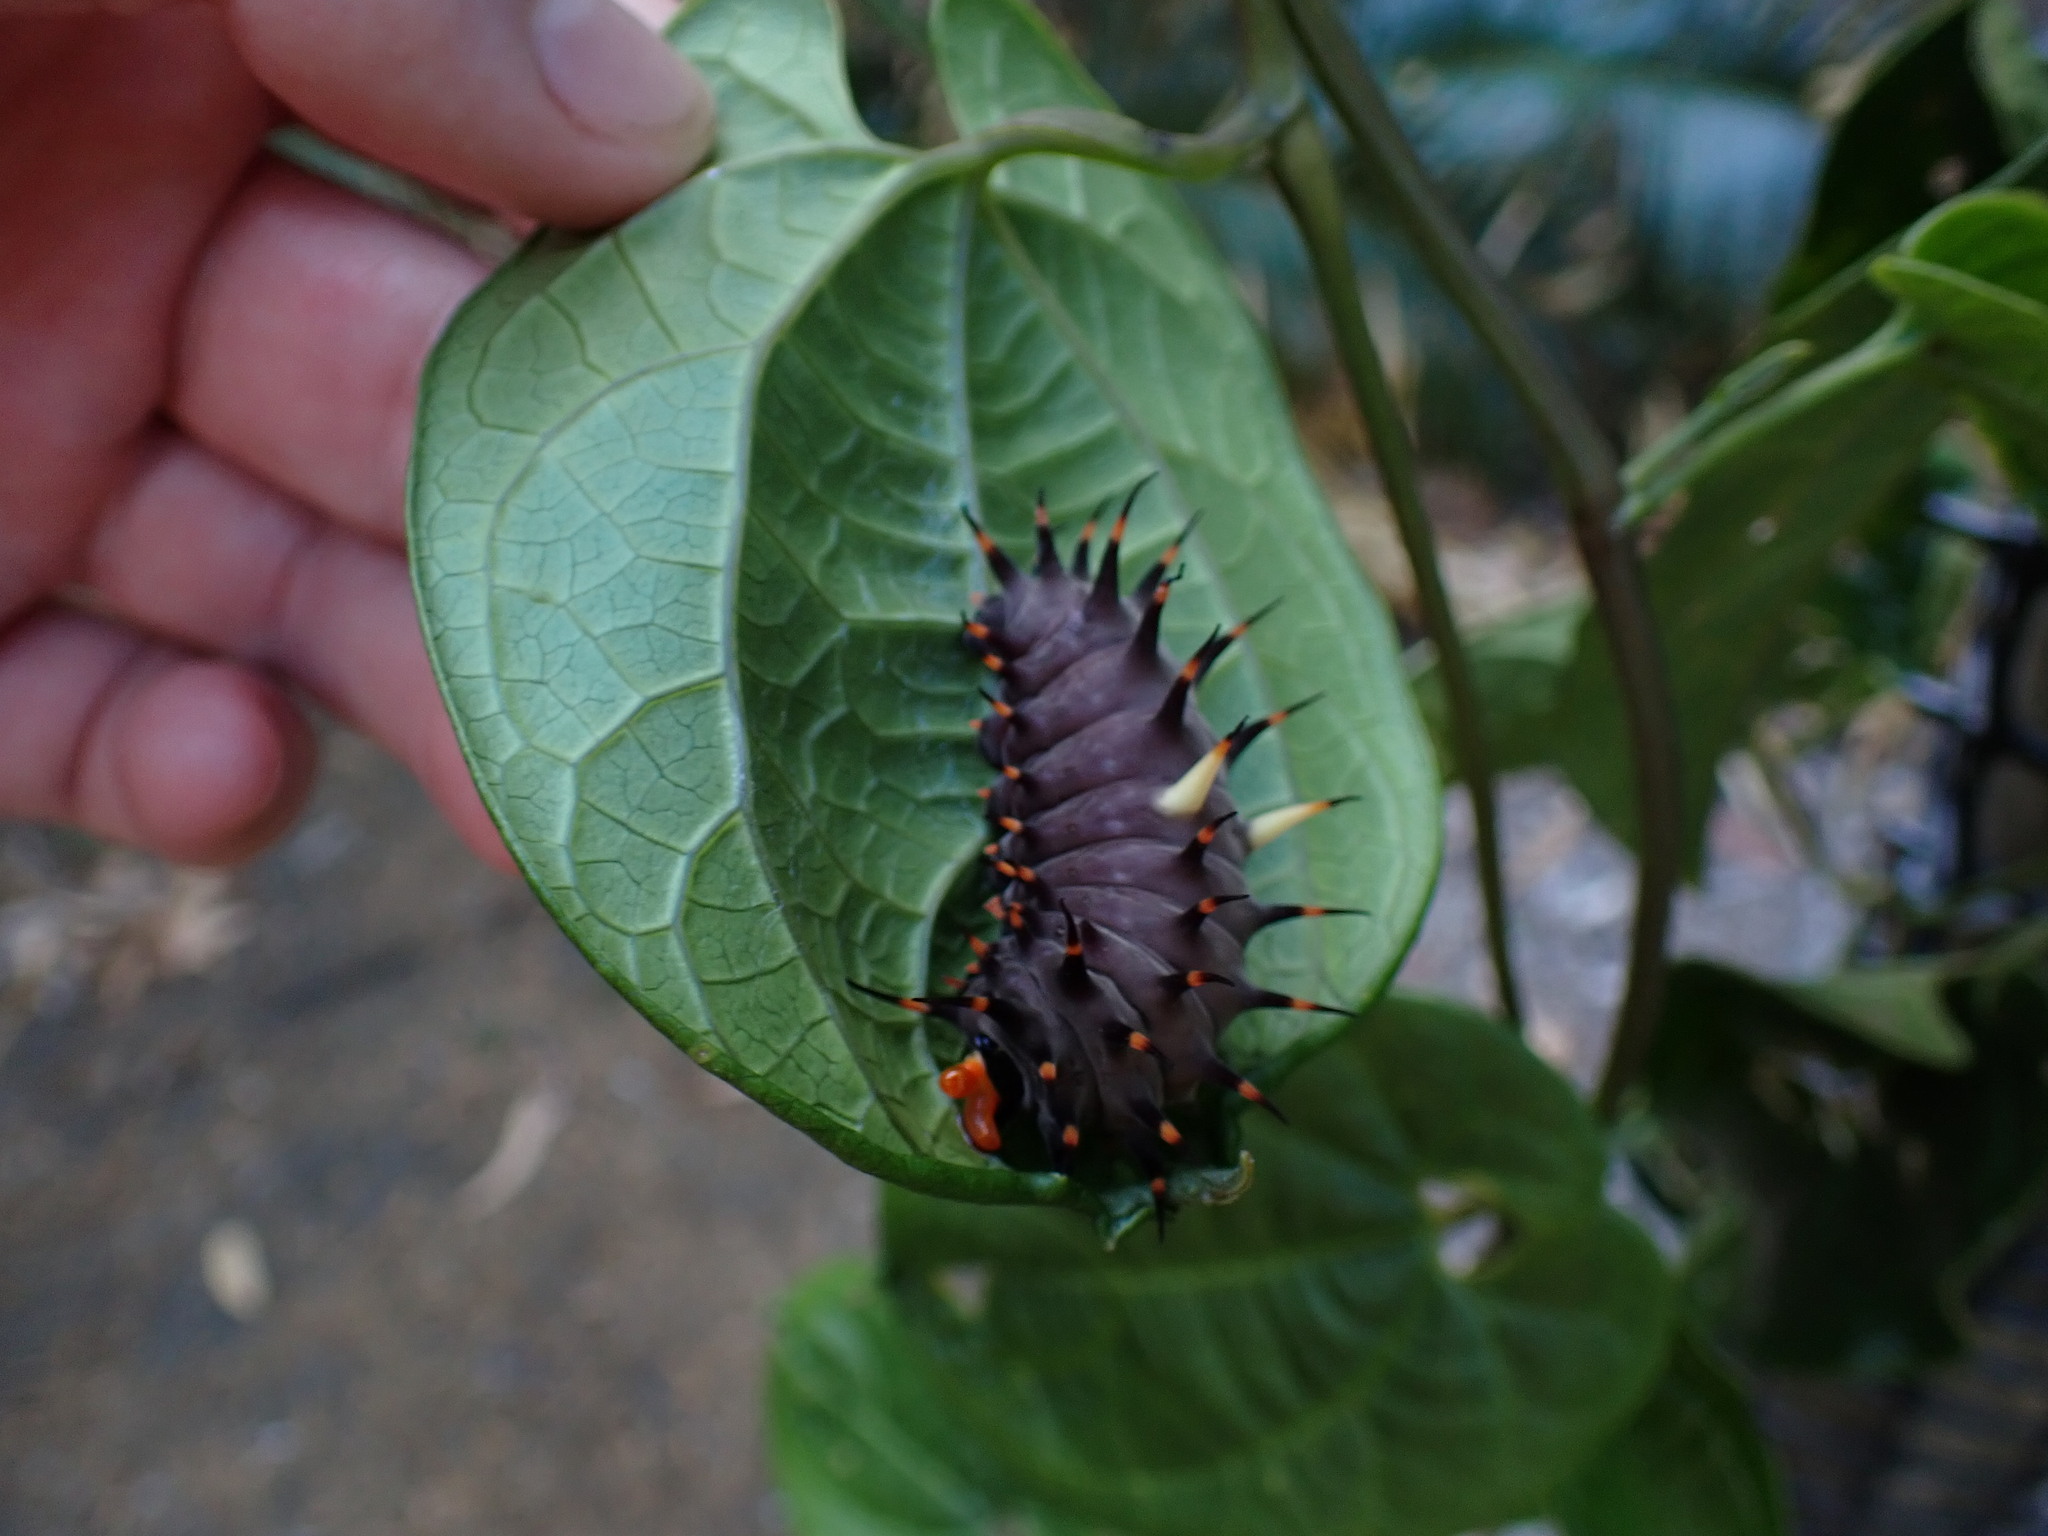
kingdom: Animalia
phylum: Arthropoda
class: Insecta
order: Lepidoptera
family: Papilionidae
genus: Ornithoptera
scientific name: Ornithoptera euphorion
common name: Cairns birdwing
